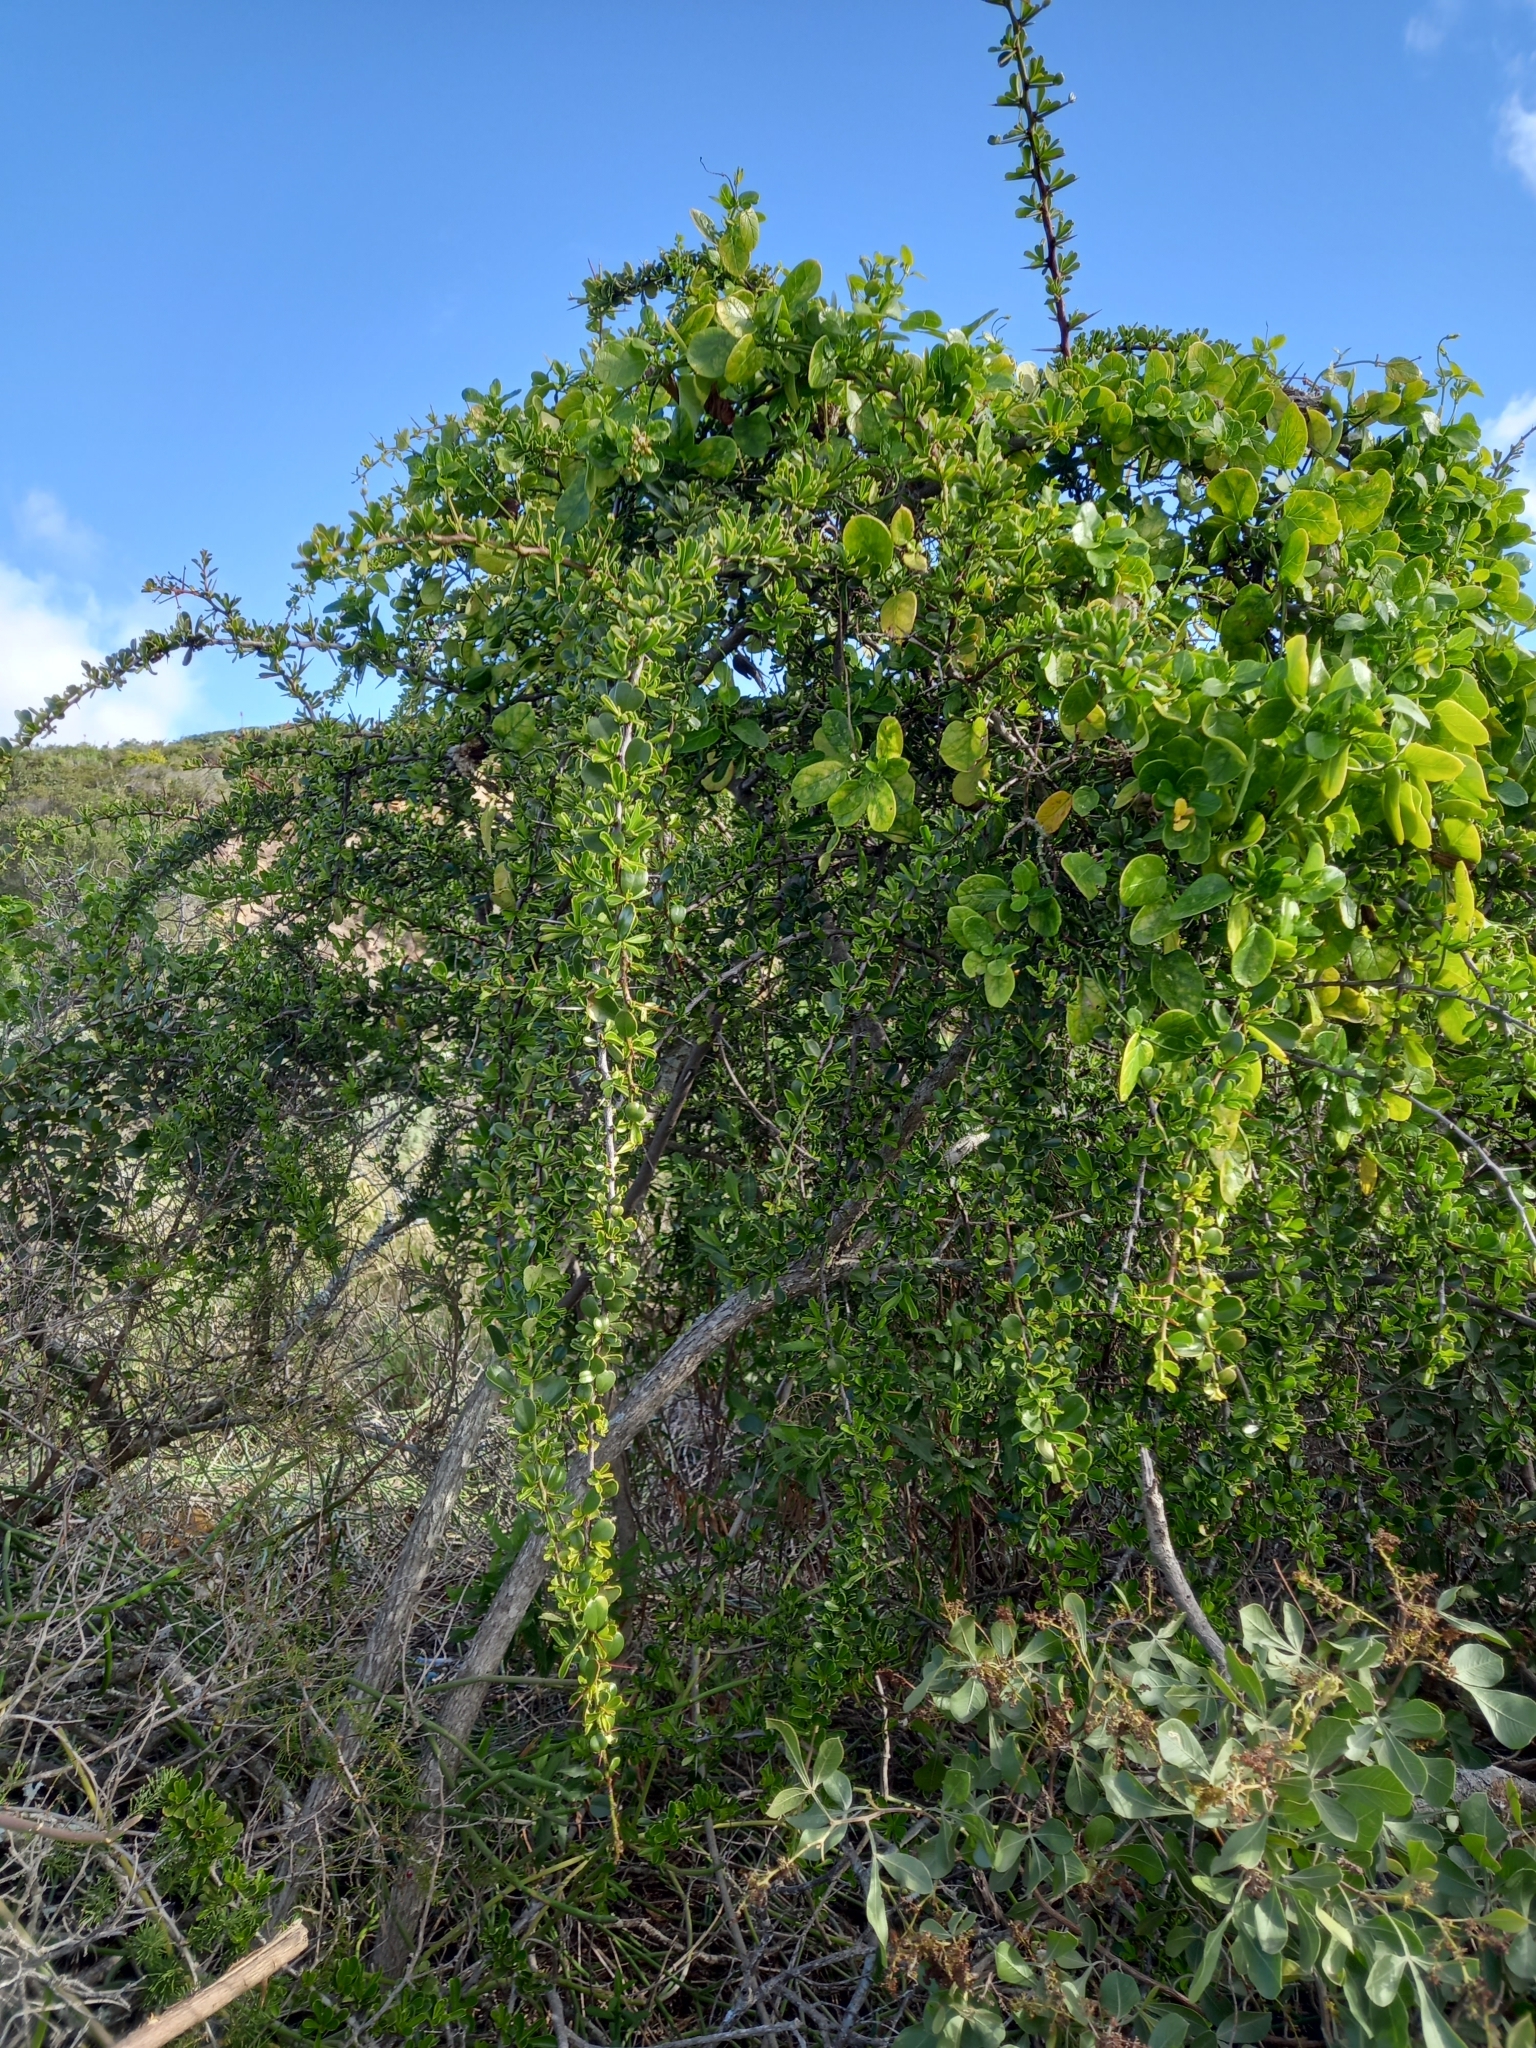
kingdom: Plantae
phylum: Tracheophyta
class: Magnoliopsida
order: Celastrales
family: Celastraceae
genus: Gymnosporia
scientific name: Gymnosporia capitata
